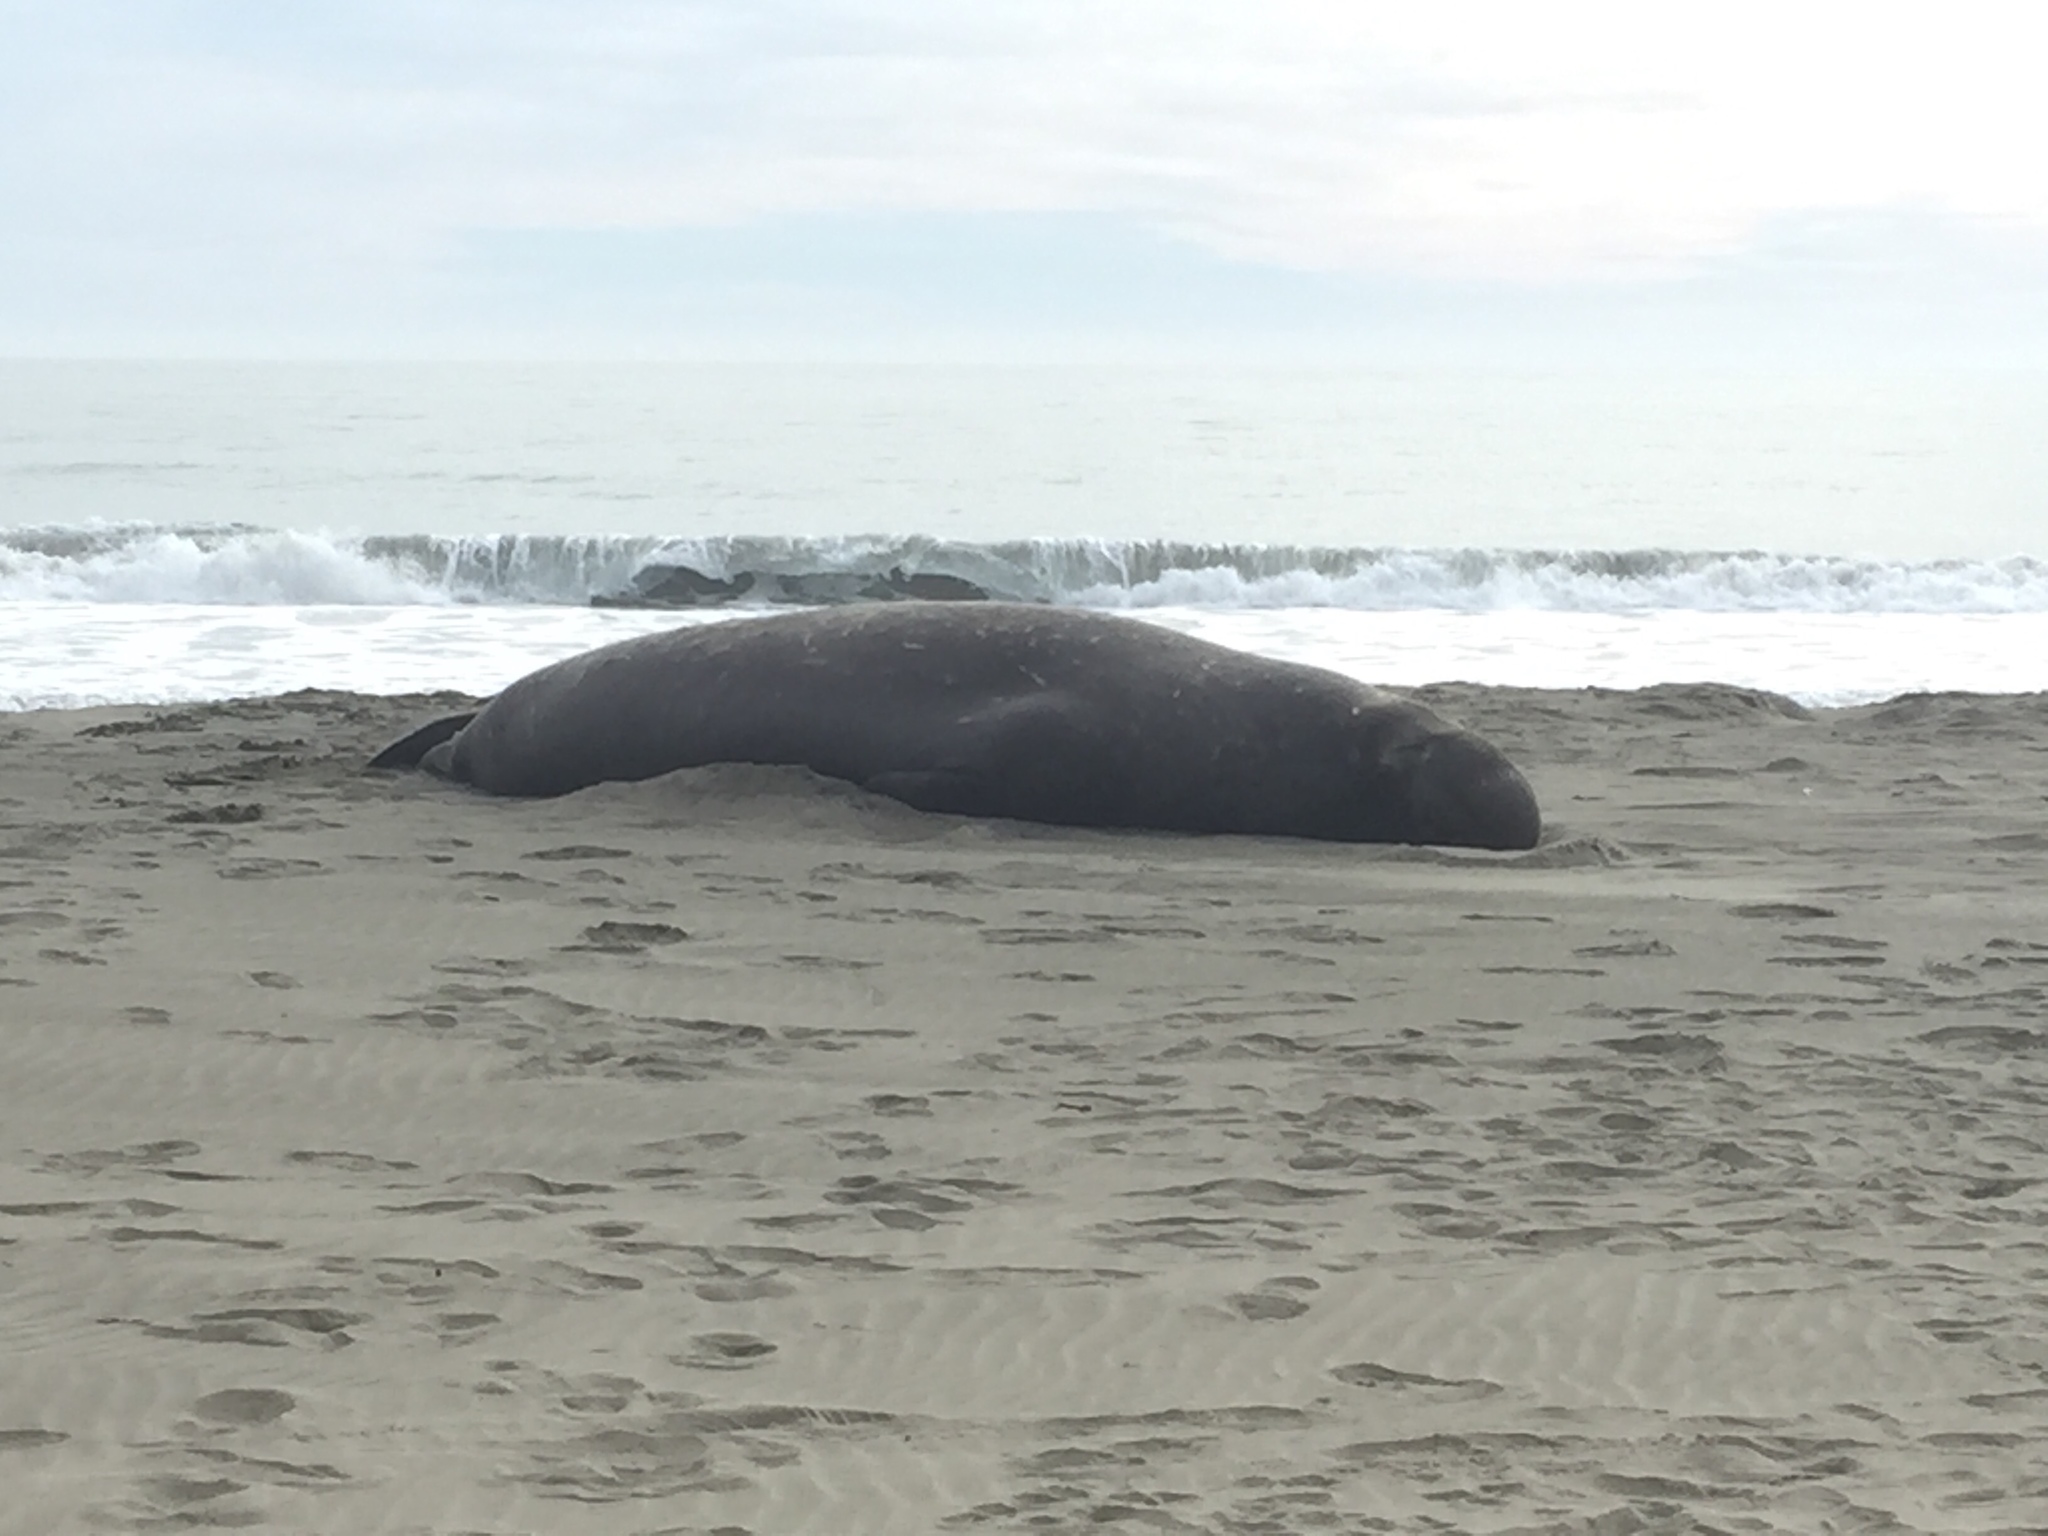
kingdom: Animalia
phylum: Chordata
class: Mammalia
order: Carnivora
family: Phocidae
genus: Mirounga
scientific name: Mirounga angustirostris
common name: Northern elephant seal
